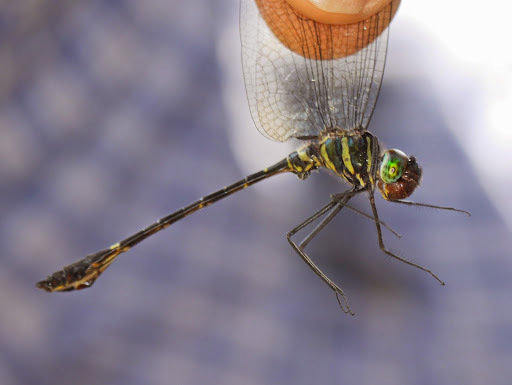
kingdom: Animalia
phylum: Arthropoda
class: Insecta
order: Odonata
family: Macromiidae
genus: Phyllomacromia
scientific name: Phyllomacromia schoutedeni
